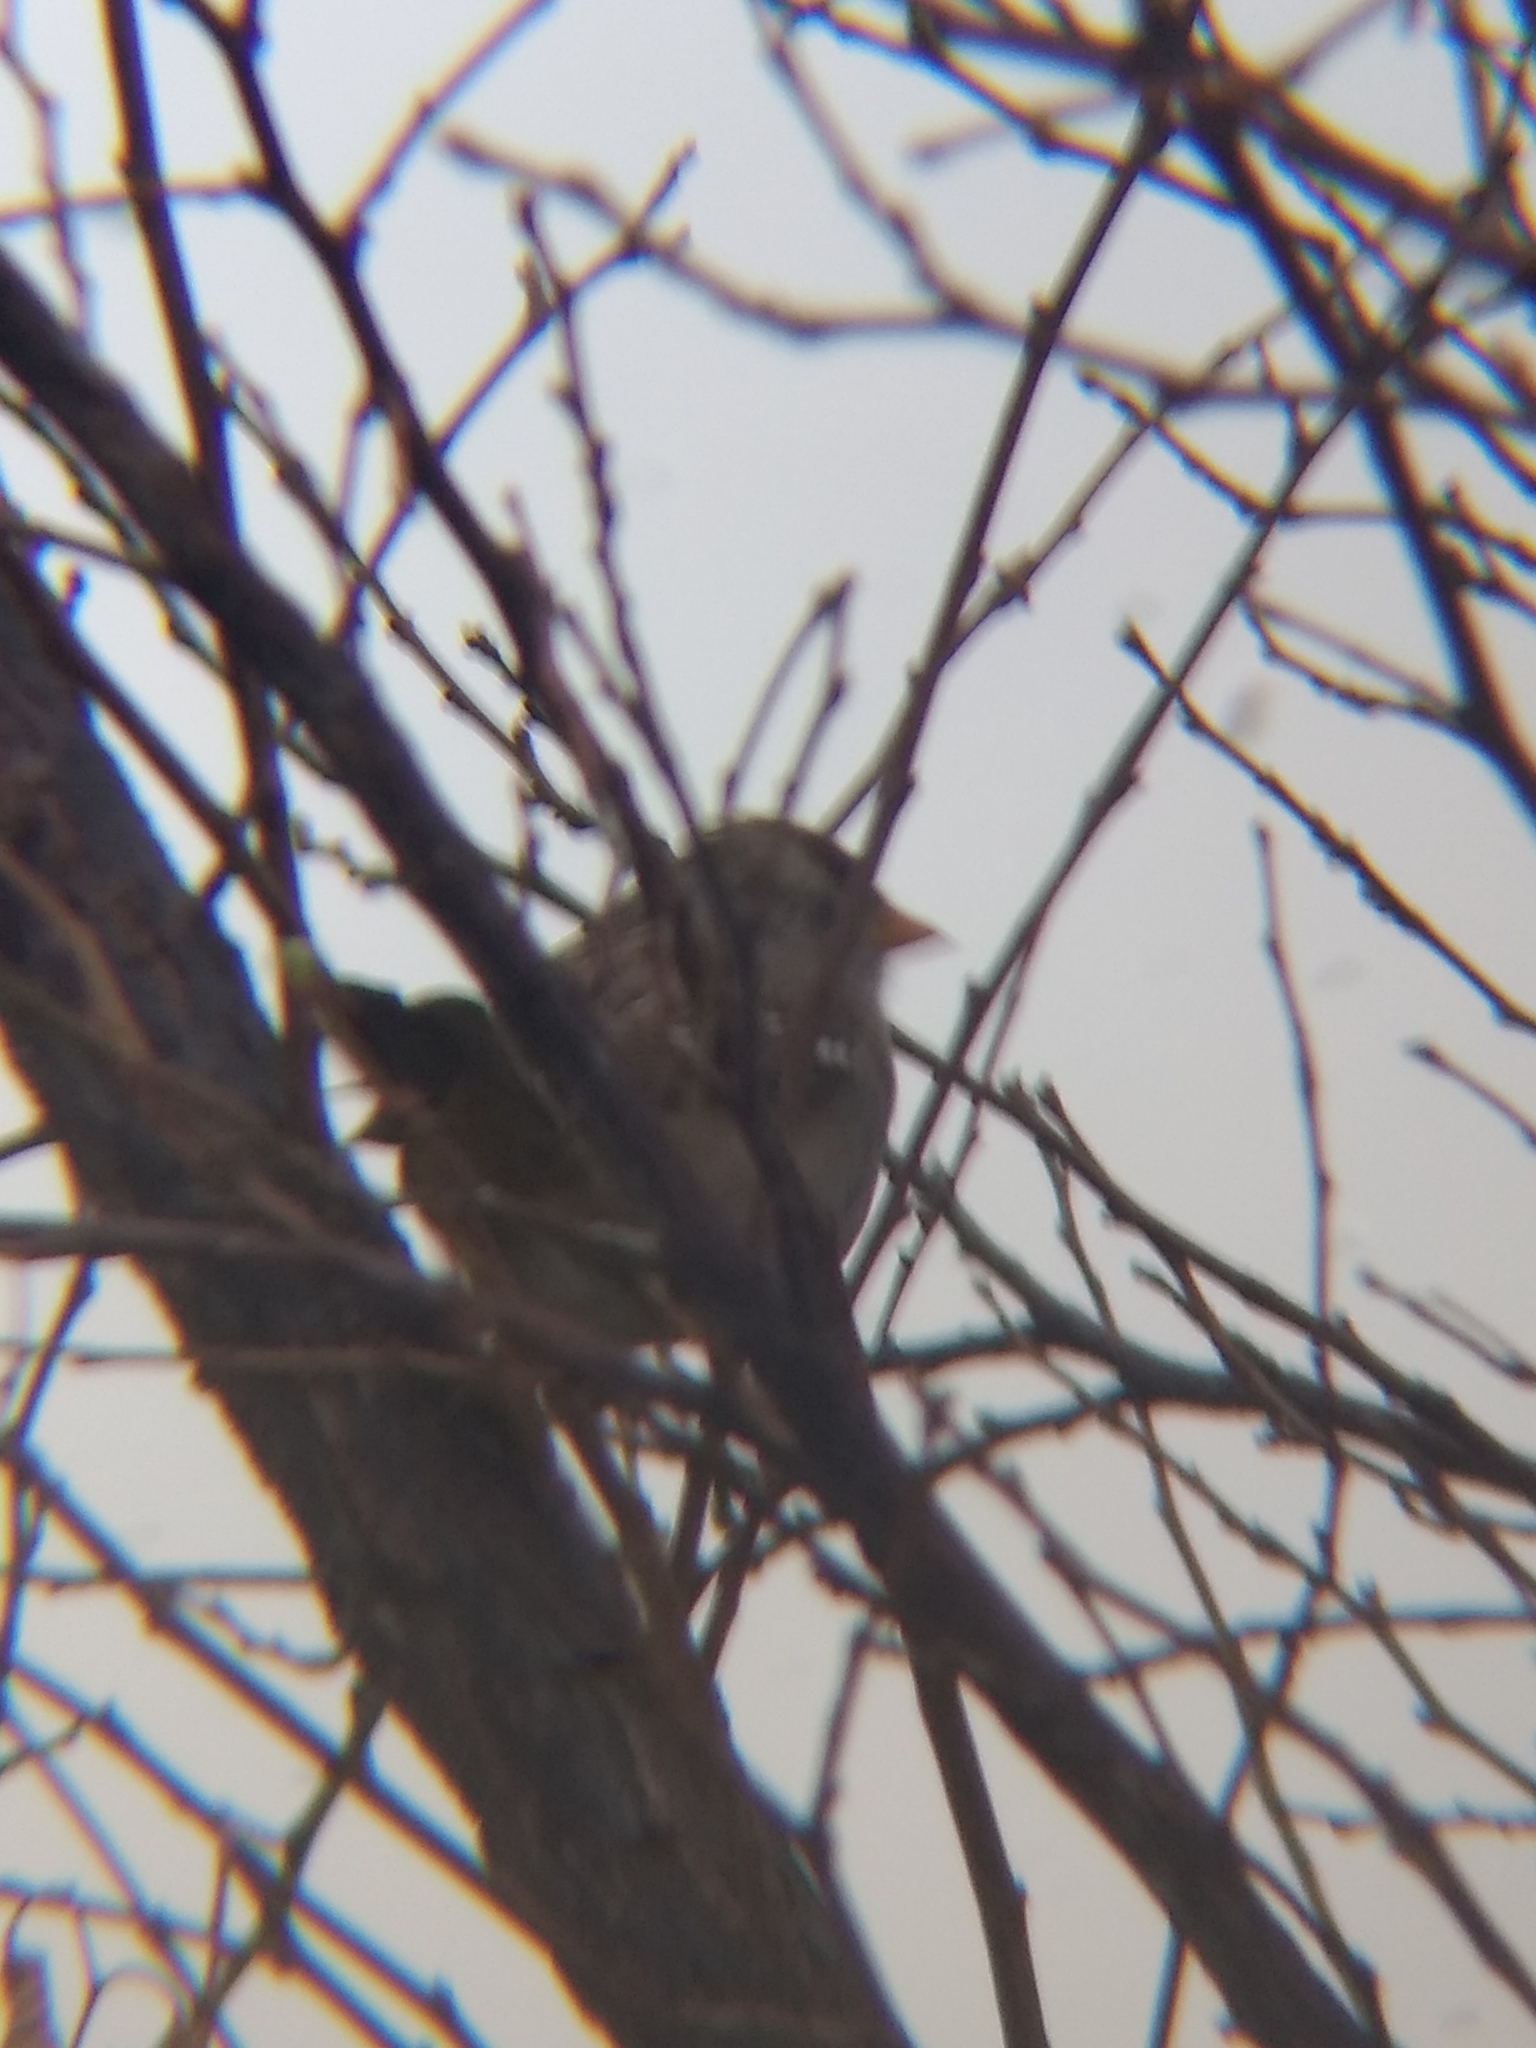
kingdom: Animalia
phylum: Chordata
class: Aves
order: Passeriformes
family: Passerellidae
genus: Zonotrichia
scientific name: Zonotrichia leucophrys
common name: White-crowned sparrow
